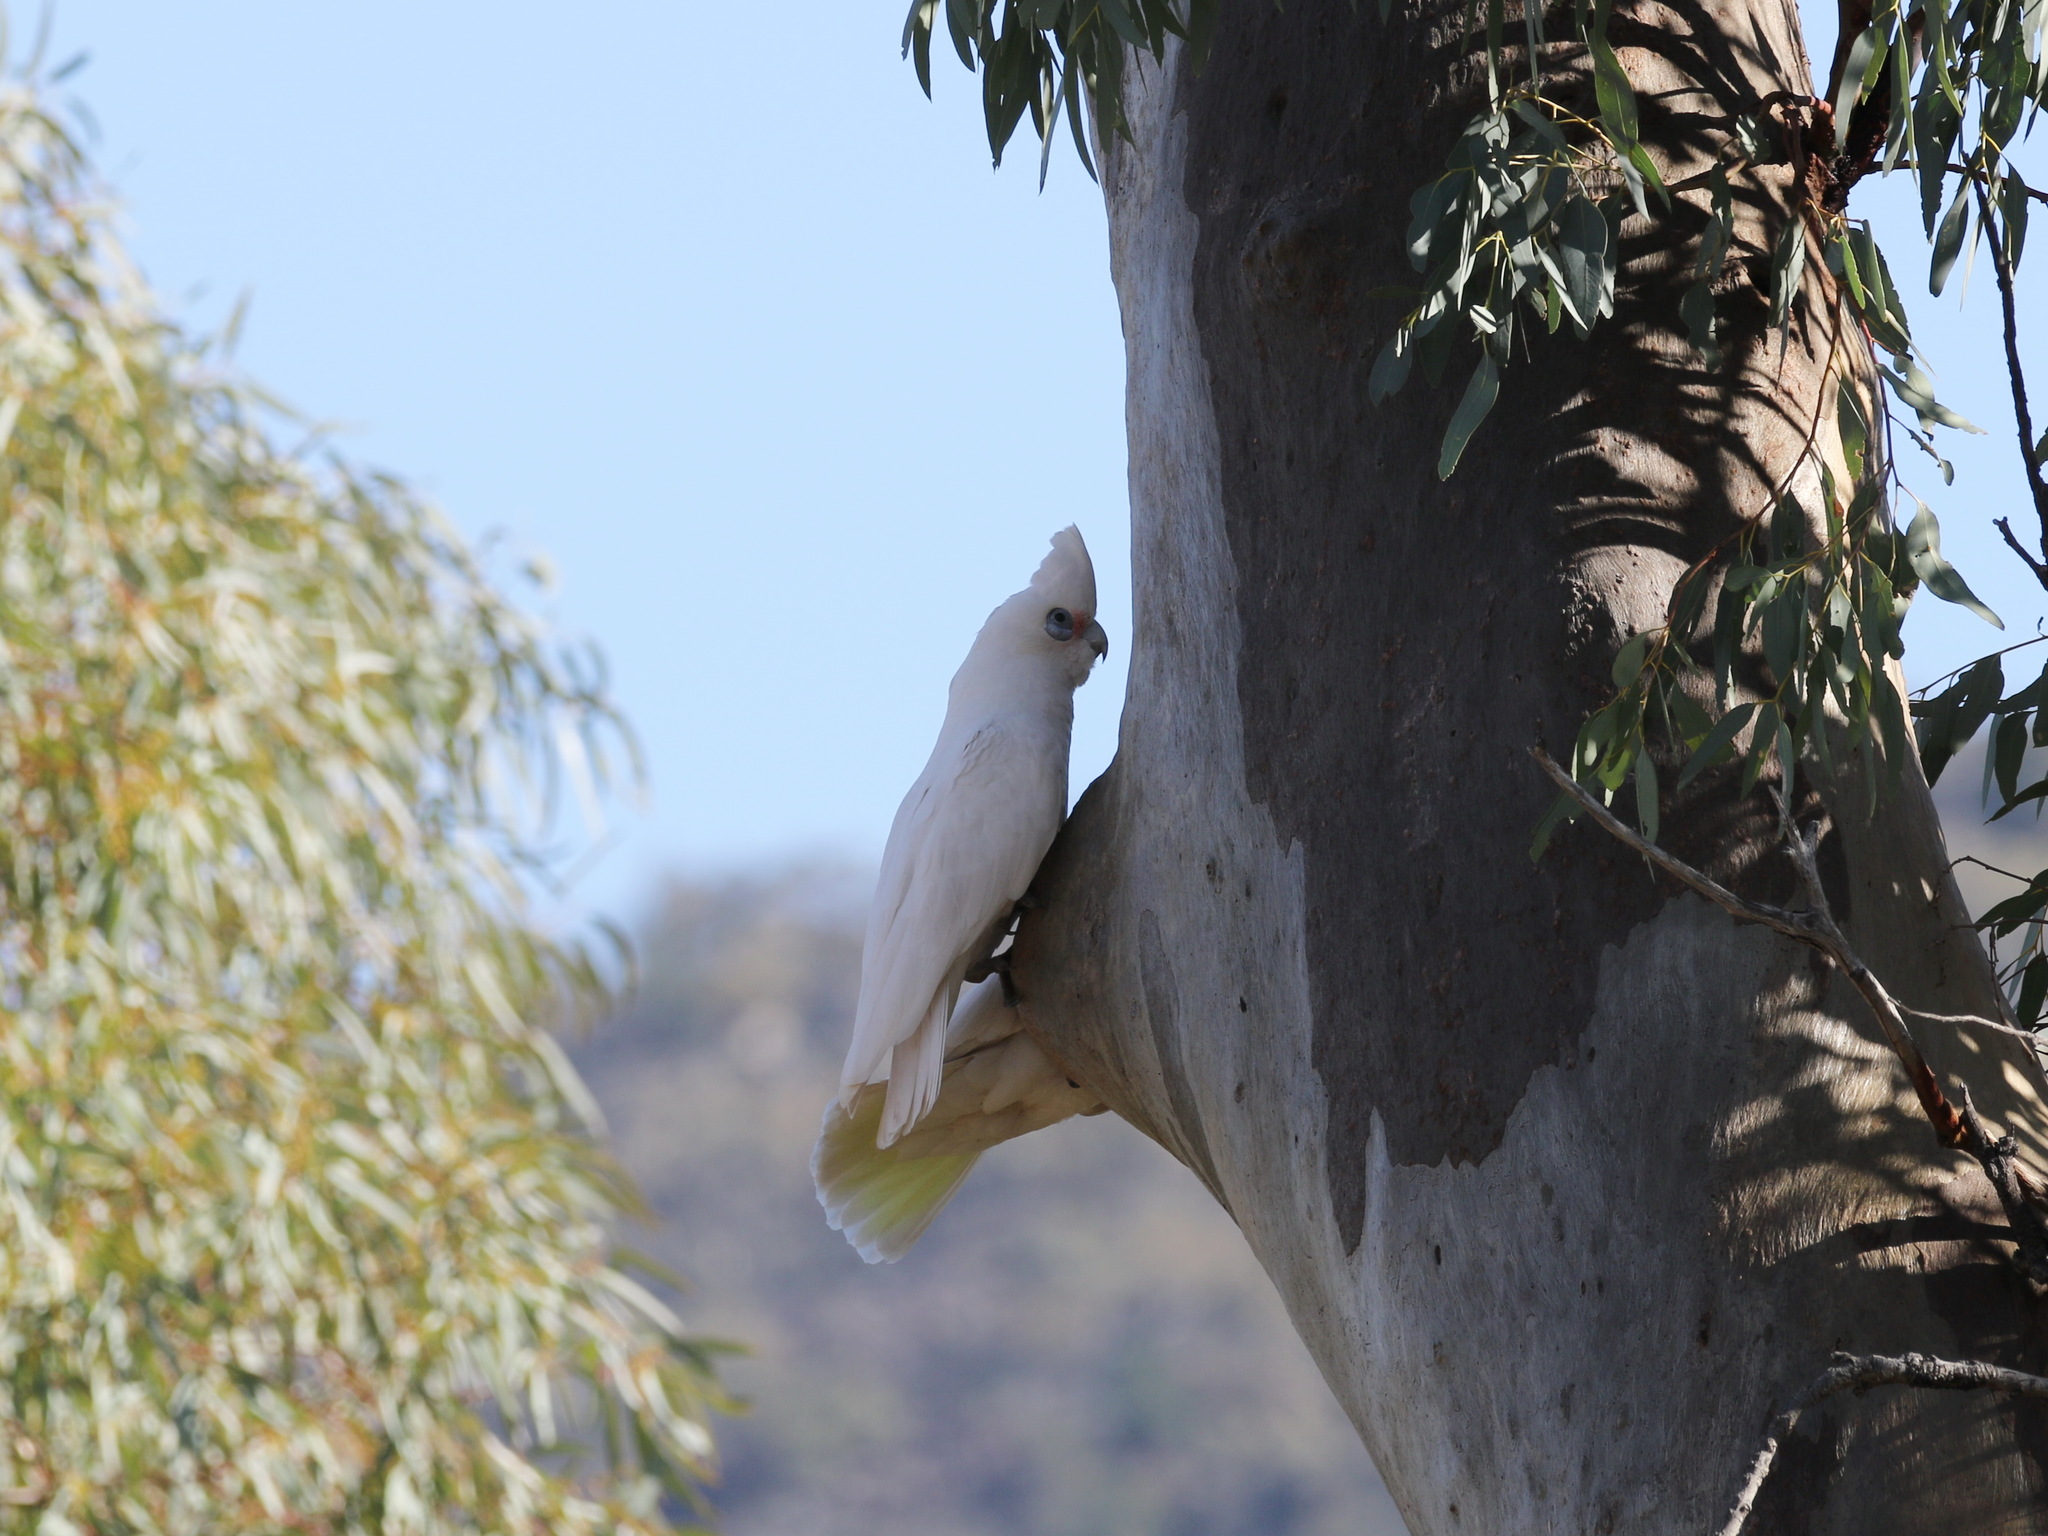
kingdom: Animalia
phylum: Chordata
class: Aves
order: Psittaciformes
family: Psittacidae
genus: Cacatua
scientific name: Cacatua sanguinea
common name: Little corella
